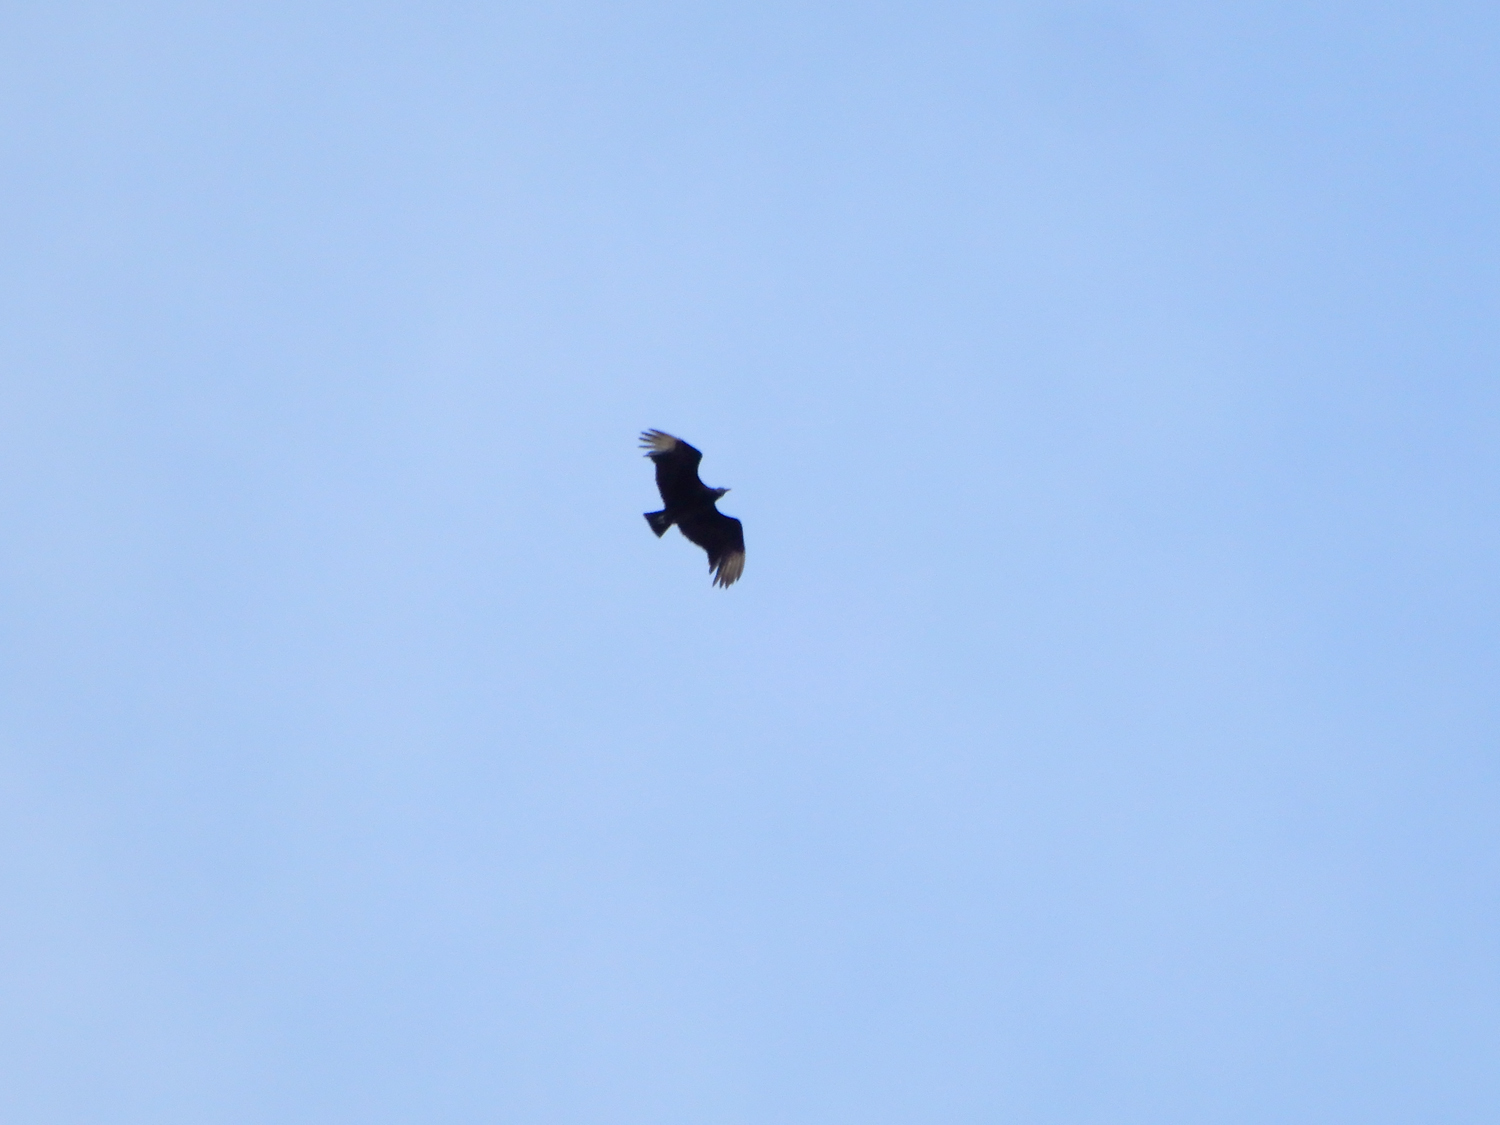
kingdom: Animalia
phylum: Chordata
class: Aves
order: Accipitriformes
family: Cathartidae
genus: Coragyps
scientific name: Coragyps atratus
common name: Black vulture
